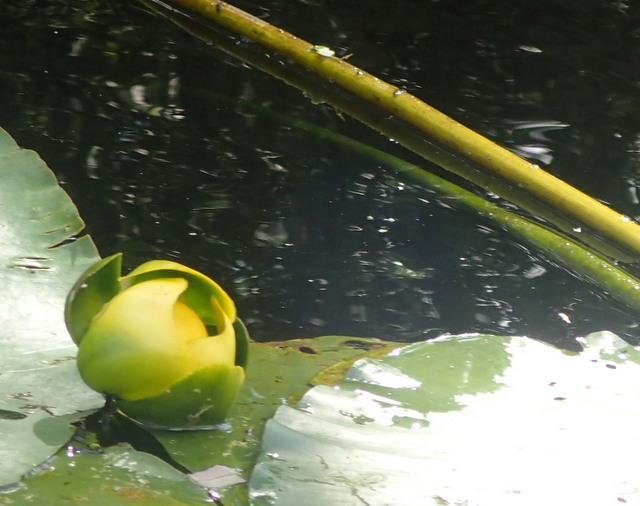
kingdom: Plantae
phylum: Tracheophyta
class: Magnoliopsida
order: Nymphaeales
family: Nymphaeaceae
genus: Nuphar
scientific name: Nuphar advena
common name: Spatter-dock
